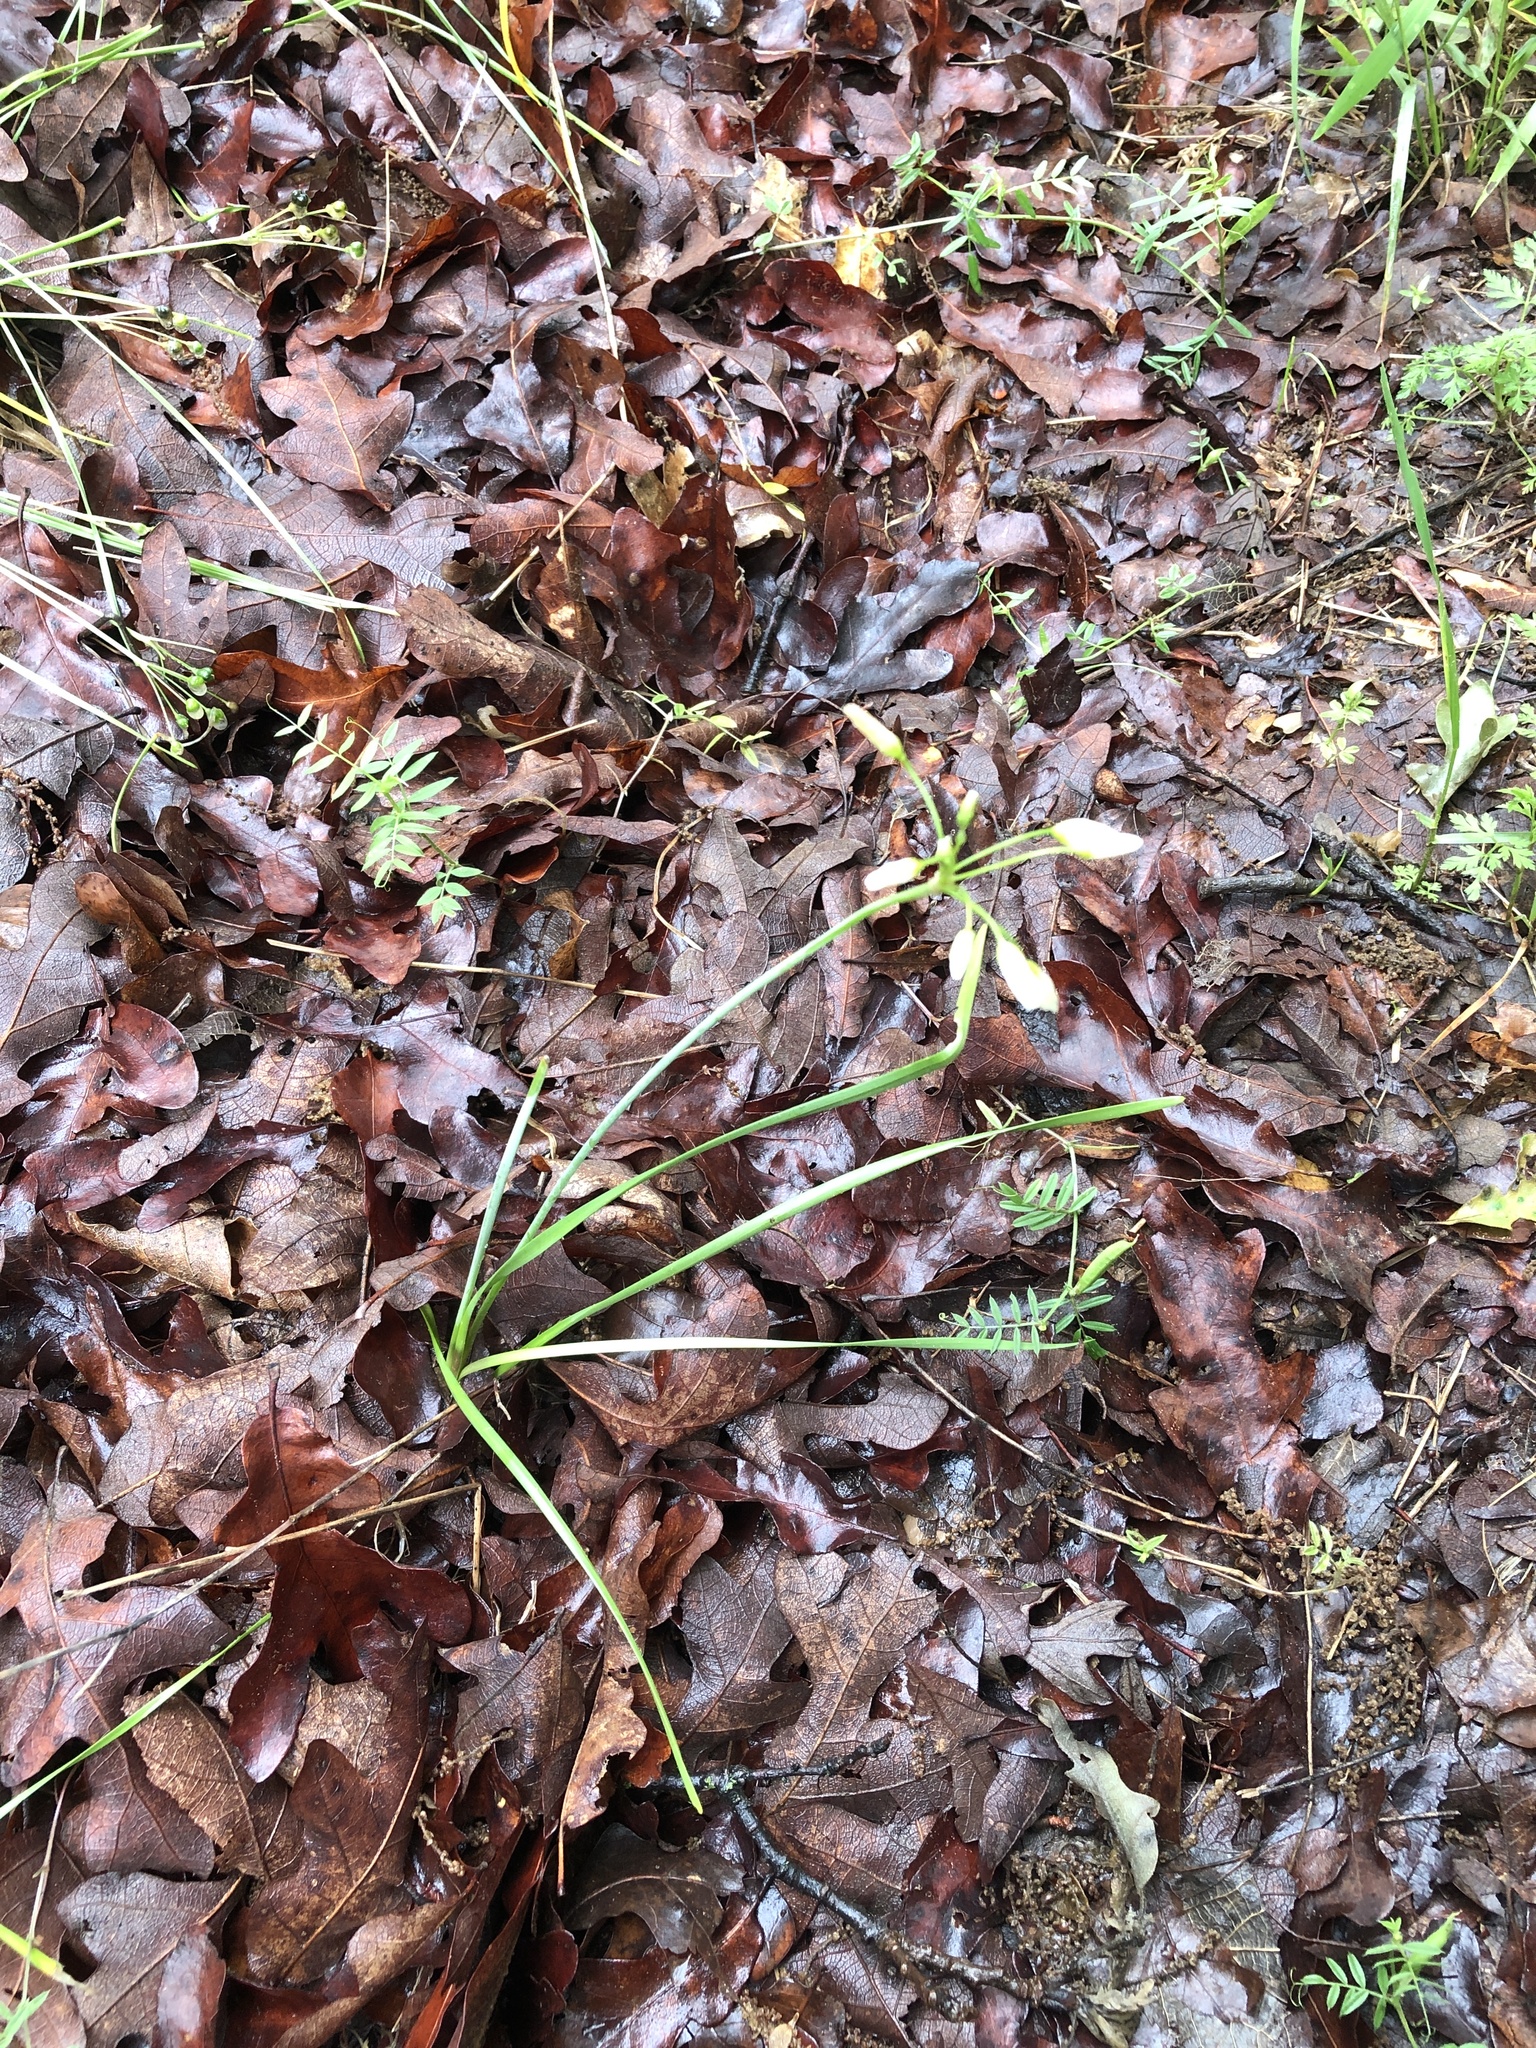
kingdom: Plantae
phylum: Tracheophyta
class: Liliopsida
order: Asparagales
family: Amaryllidaceae
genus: Nothoscordum
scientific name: Nothoscordum bivalve
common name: Crow-poison
